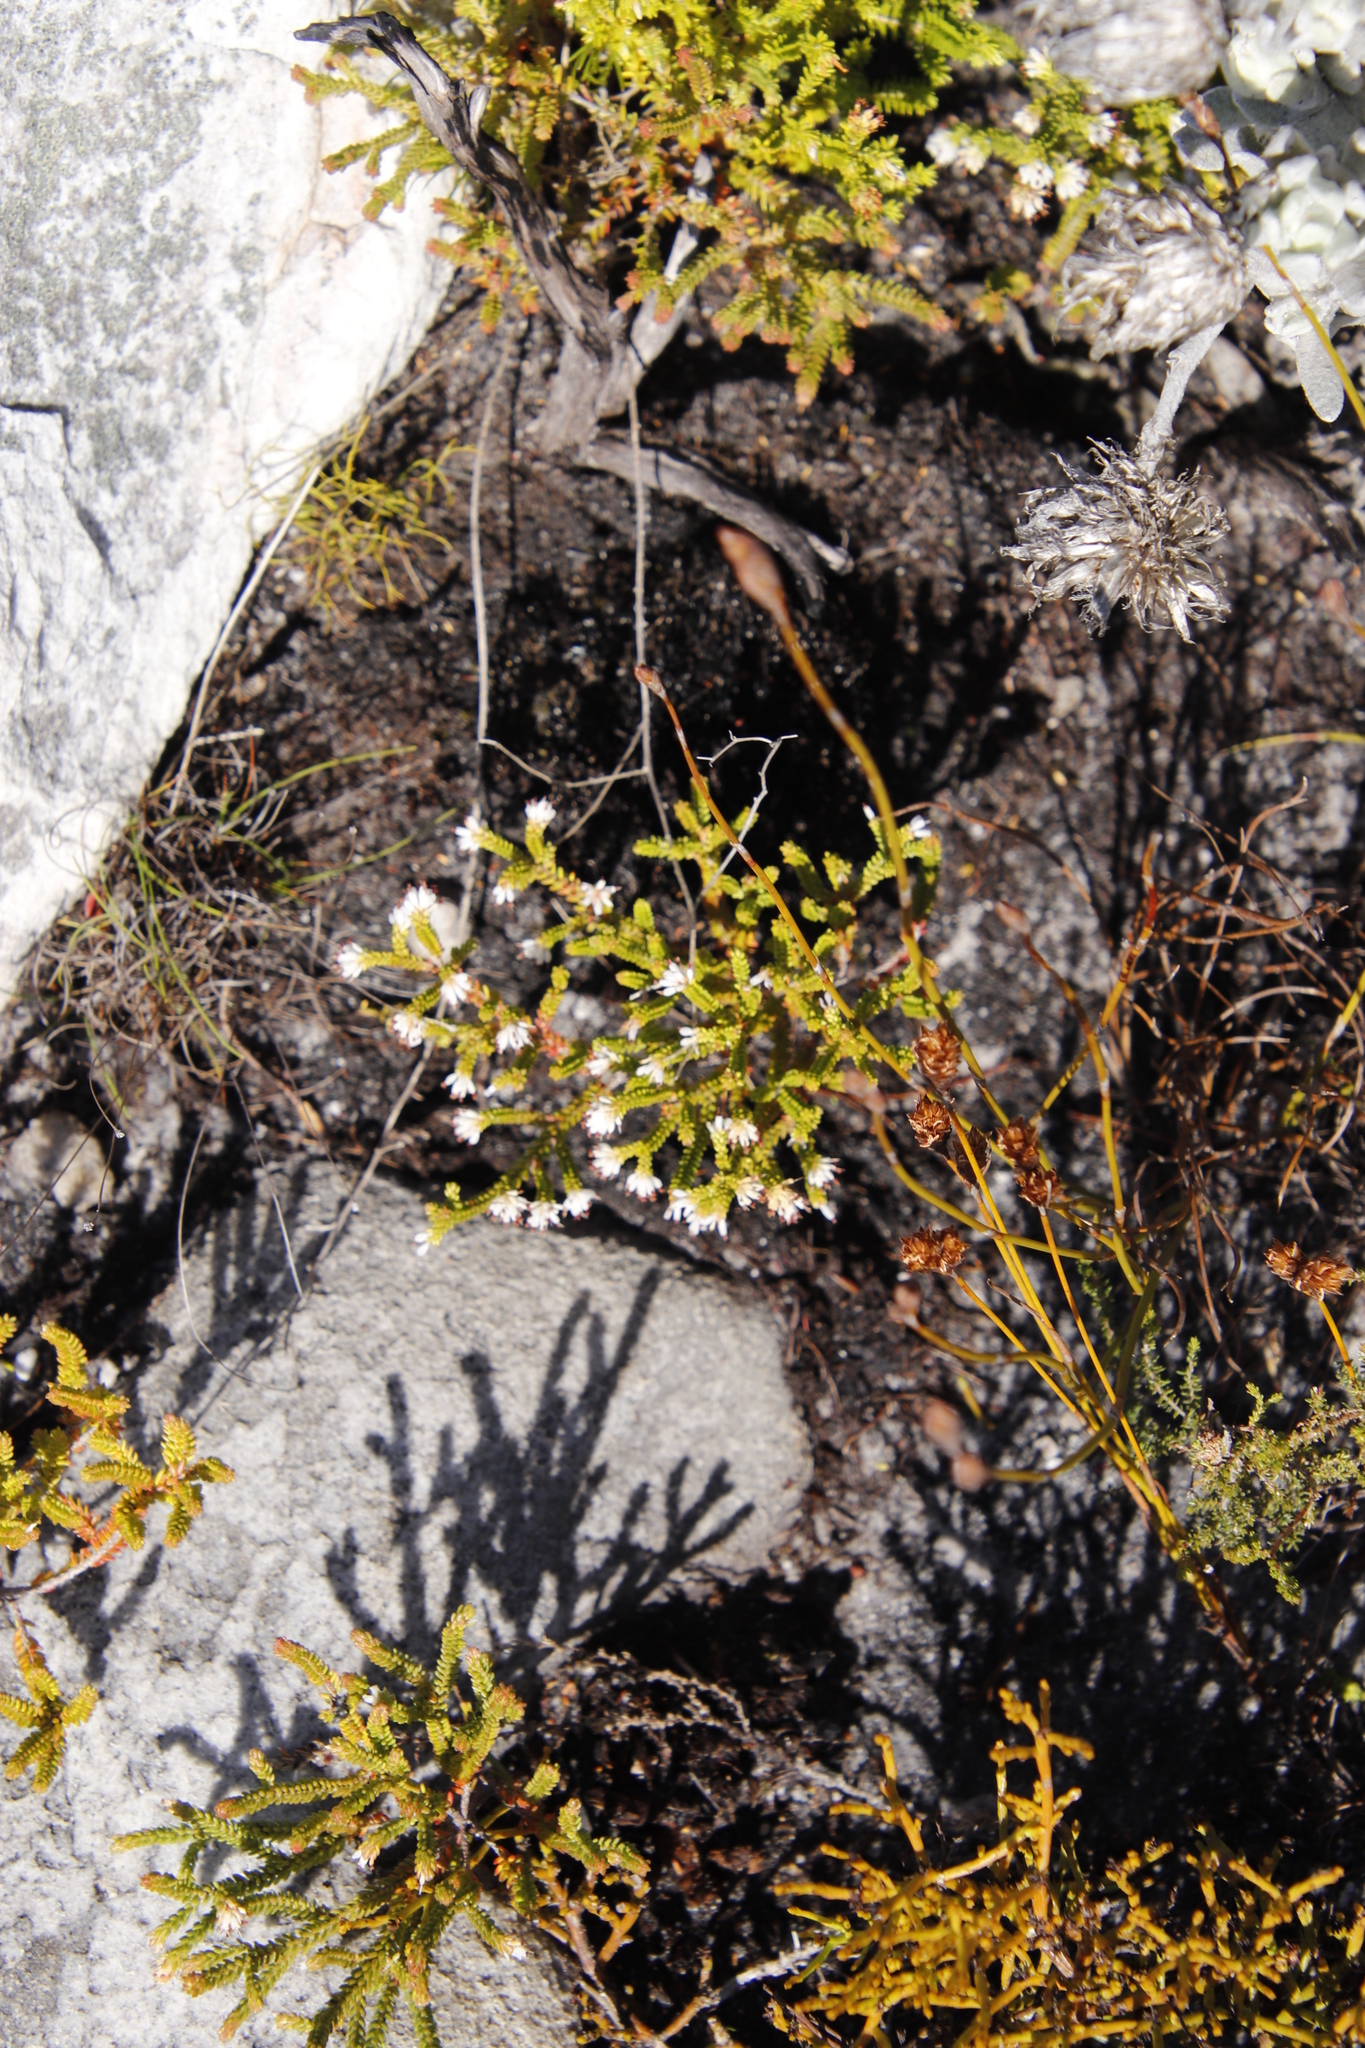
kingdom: Plantae
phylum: Tracheophyta
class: Magnoliopsida
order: Ericales
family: Ericaceae
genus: Erica
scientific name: Erica labialis
